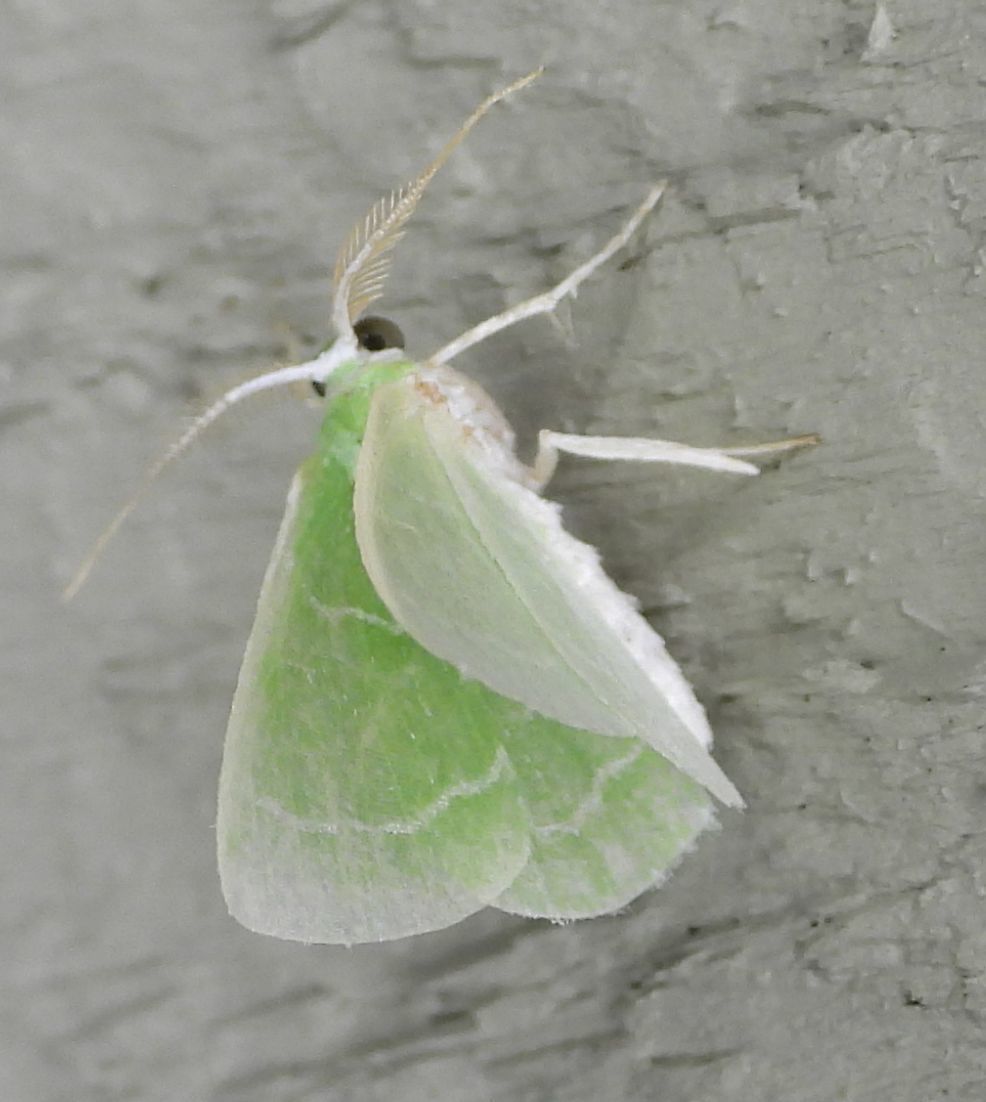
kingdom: Animalia
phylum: Arthropoda
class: Insecta
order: Lepidoptera
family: Geometridae
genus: Synchlora
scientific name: Synchlora aerata
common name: Wavy-lined emerald
